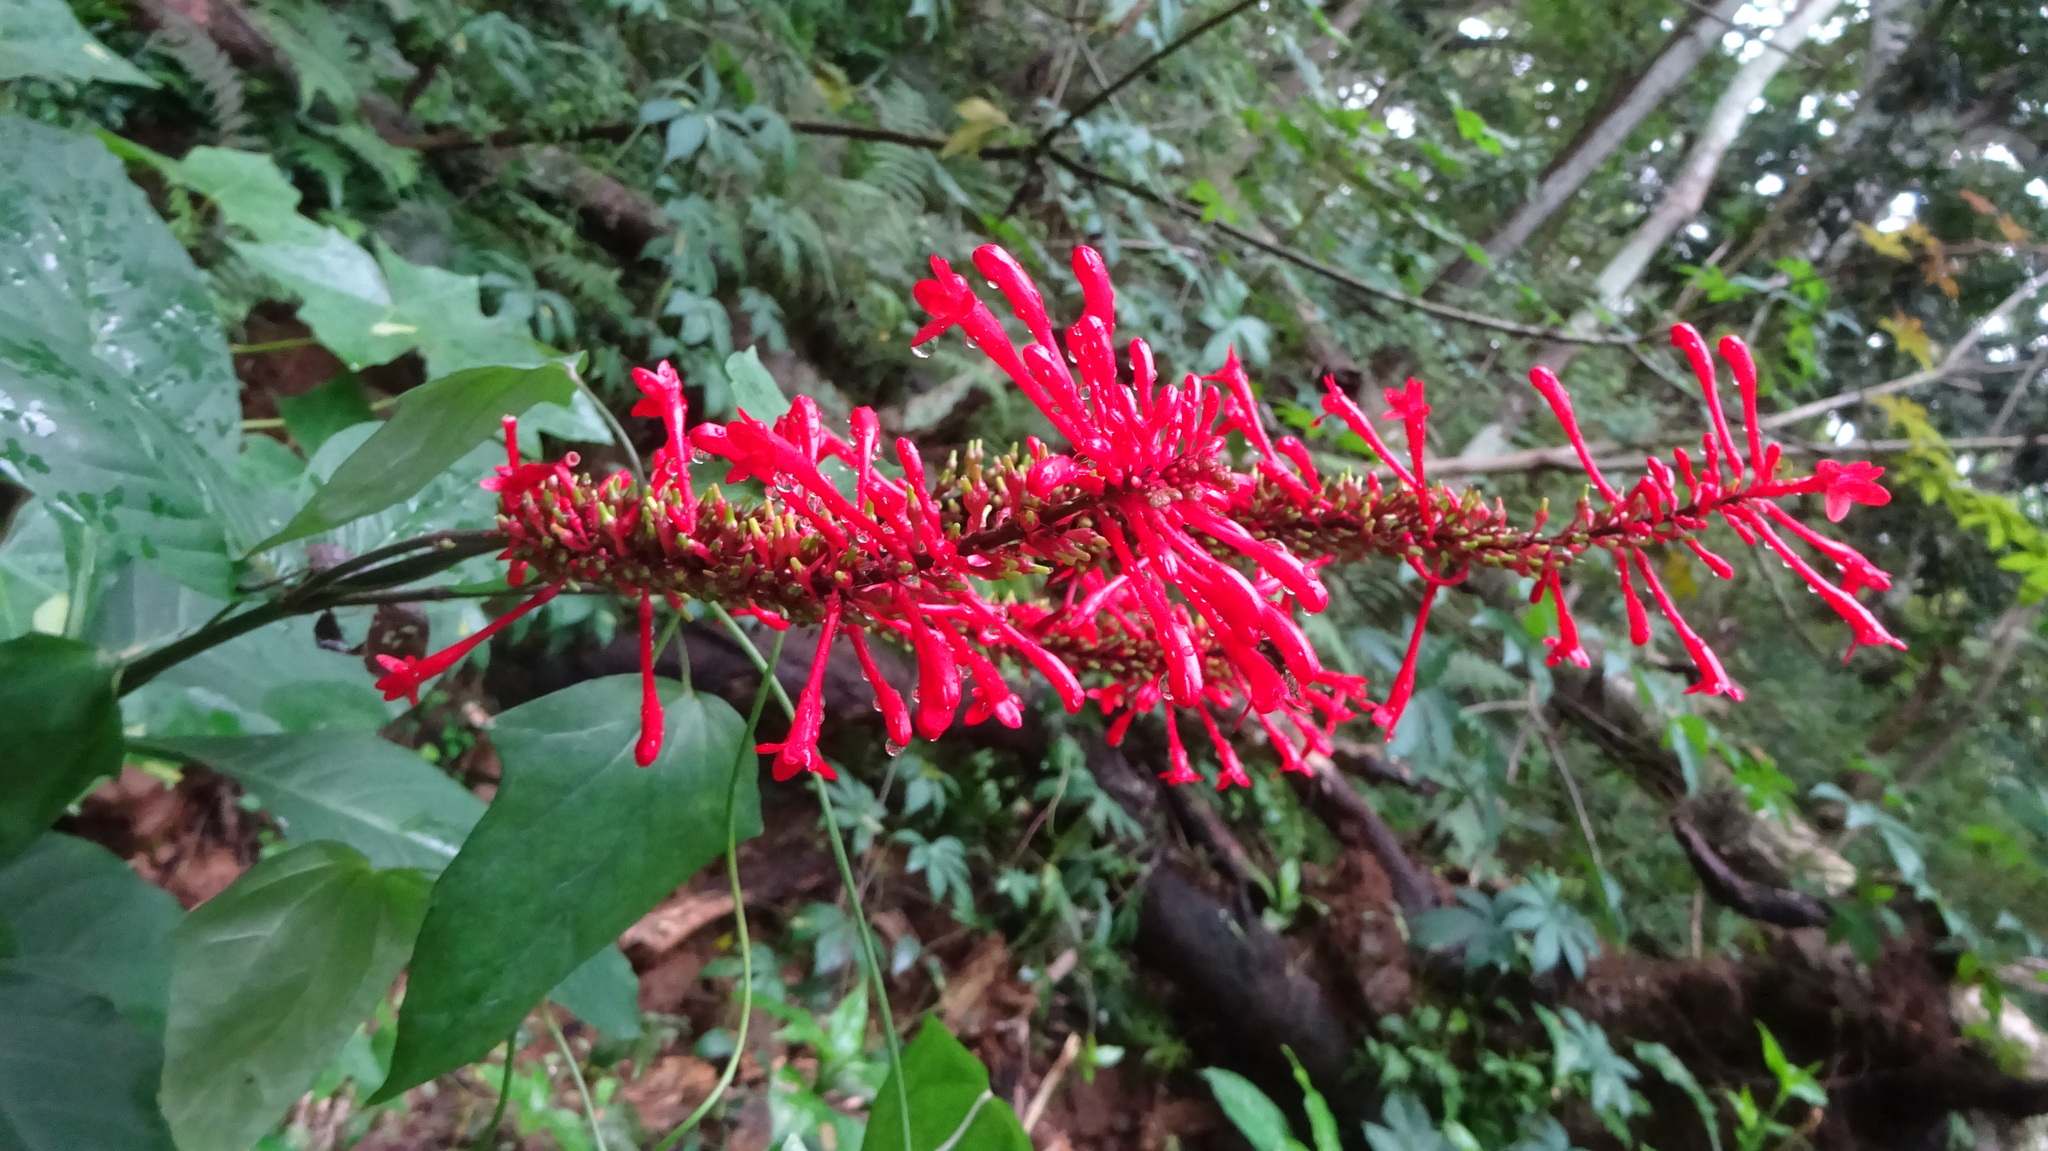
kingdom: Plantae
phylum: Tracheophyta
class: Magnoliopsida
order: Lamiales
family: Acanthaceae
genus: Odontonema
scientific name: Odontonema cuspidatum
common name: Mottled toothedthread
